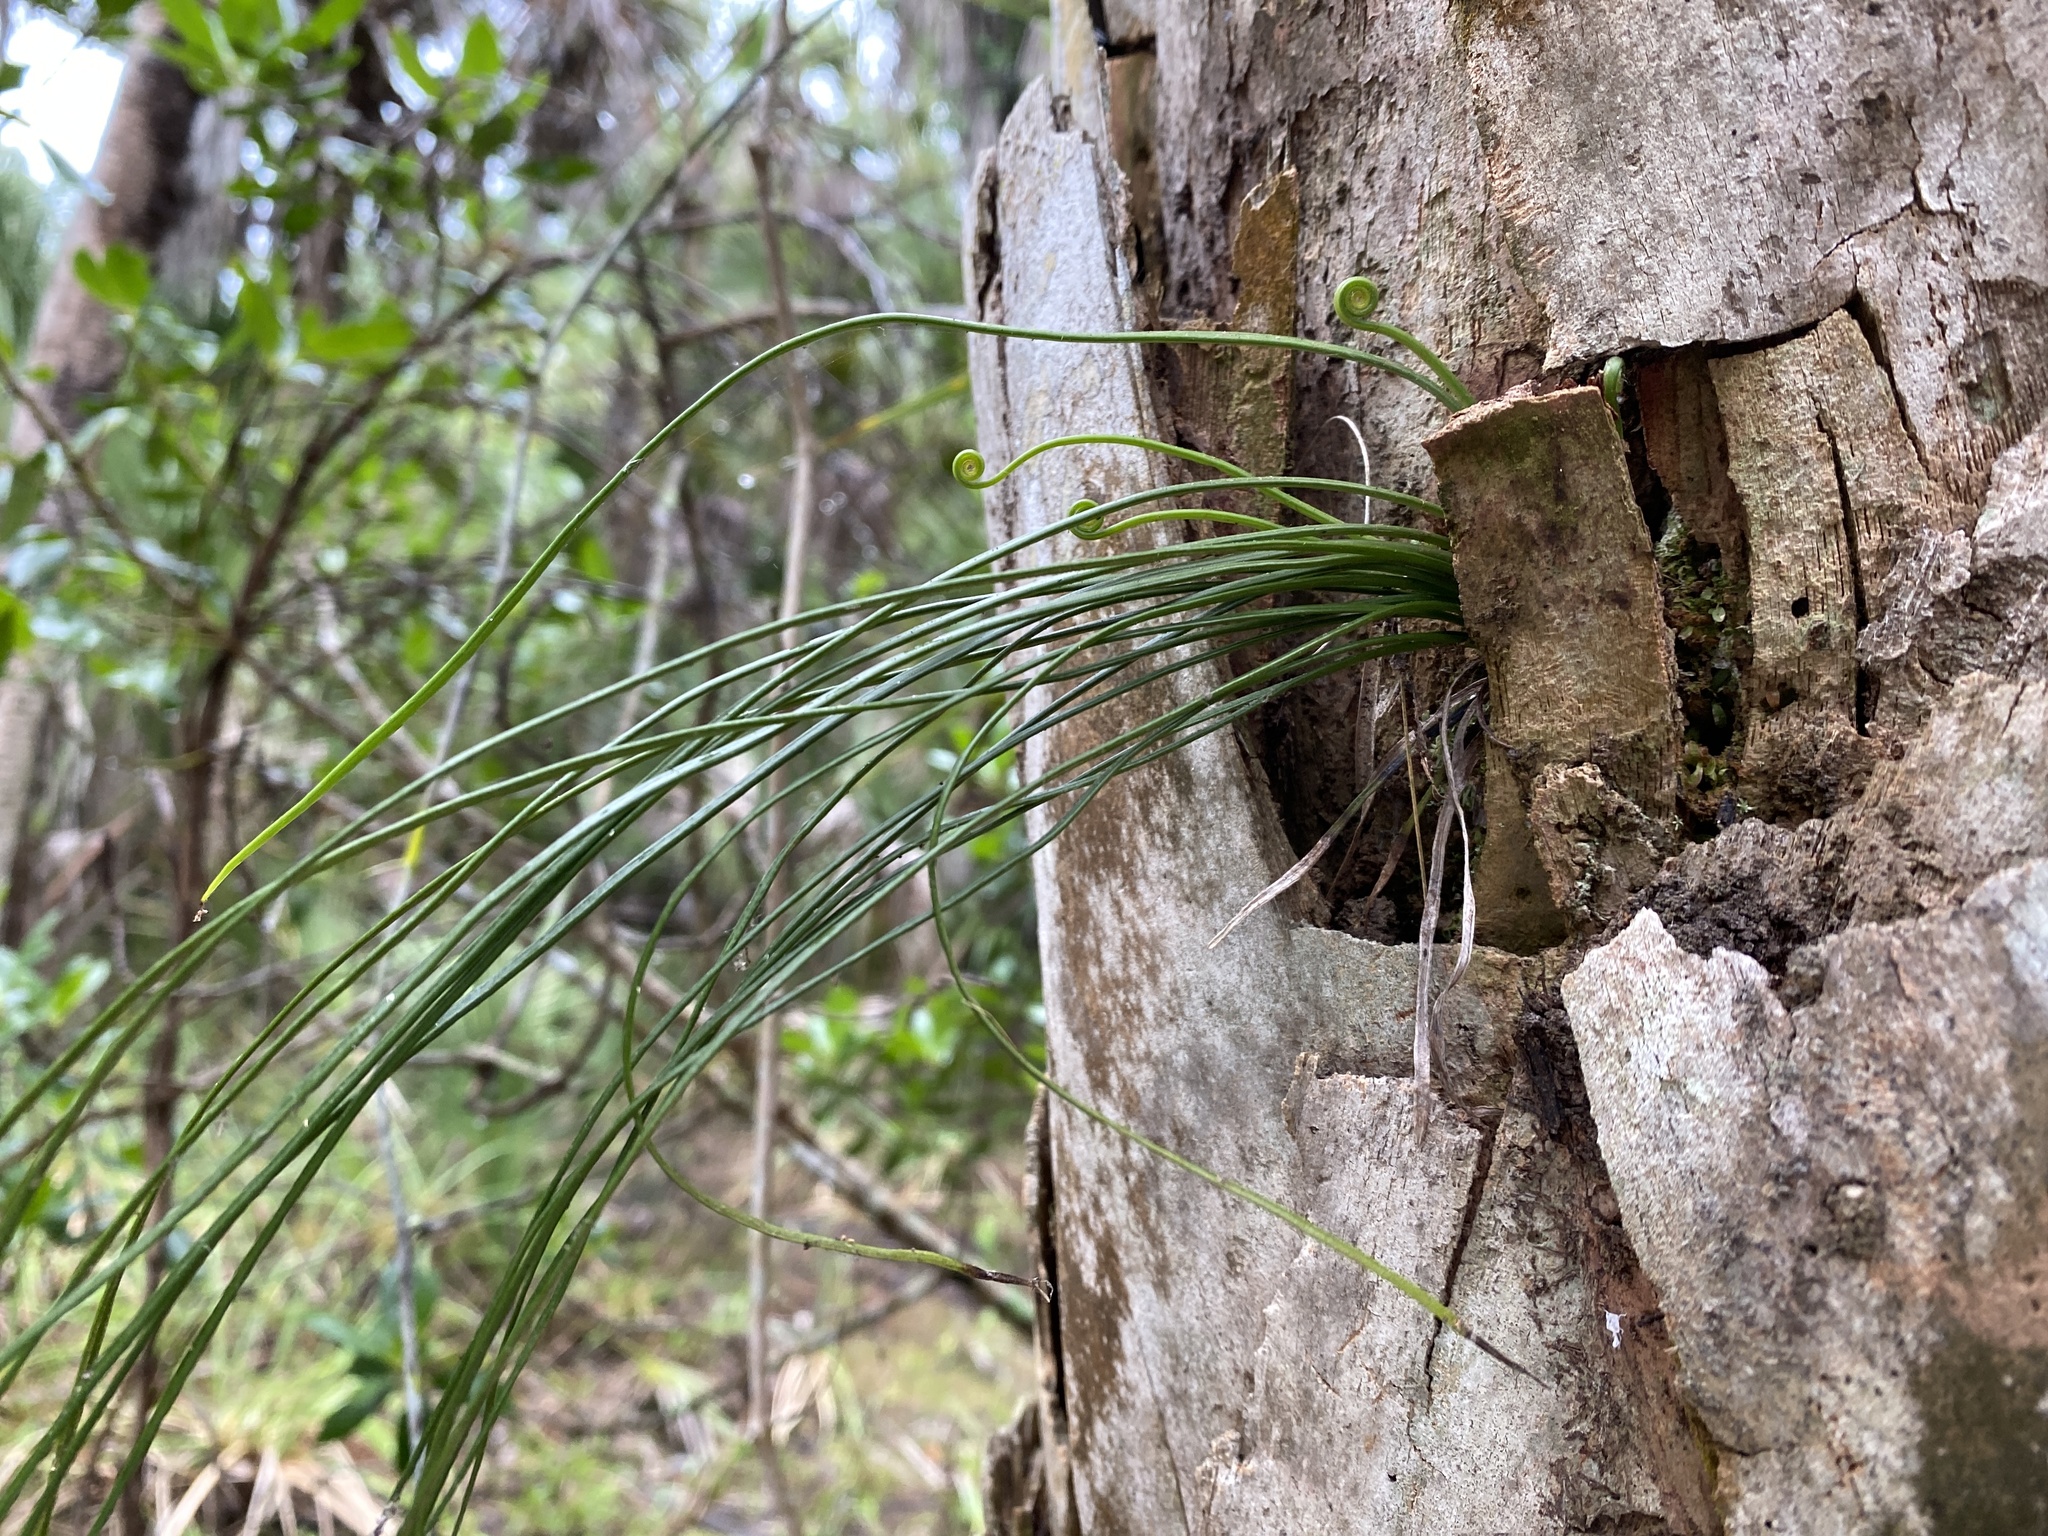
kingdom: Plantae
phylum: Tracheophyta
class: Polypodiopsida
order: Polypodiales
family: Pteridaceae
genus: Vittaria
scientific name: Vittaria lineata
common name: Shoestring fern
